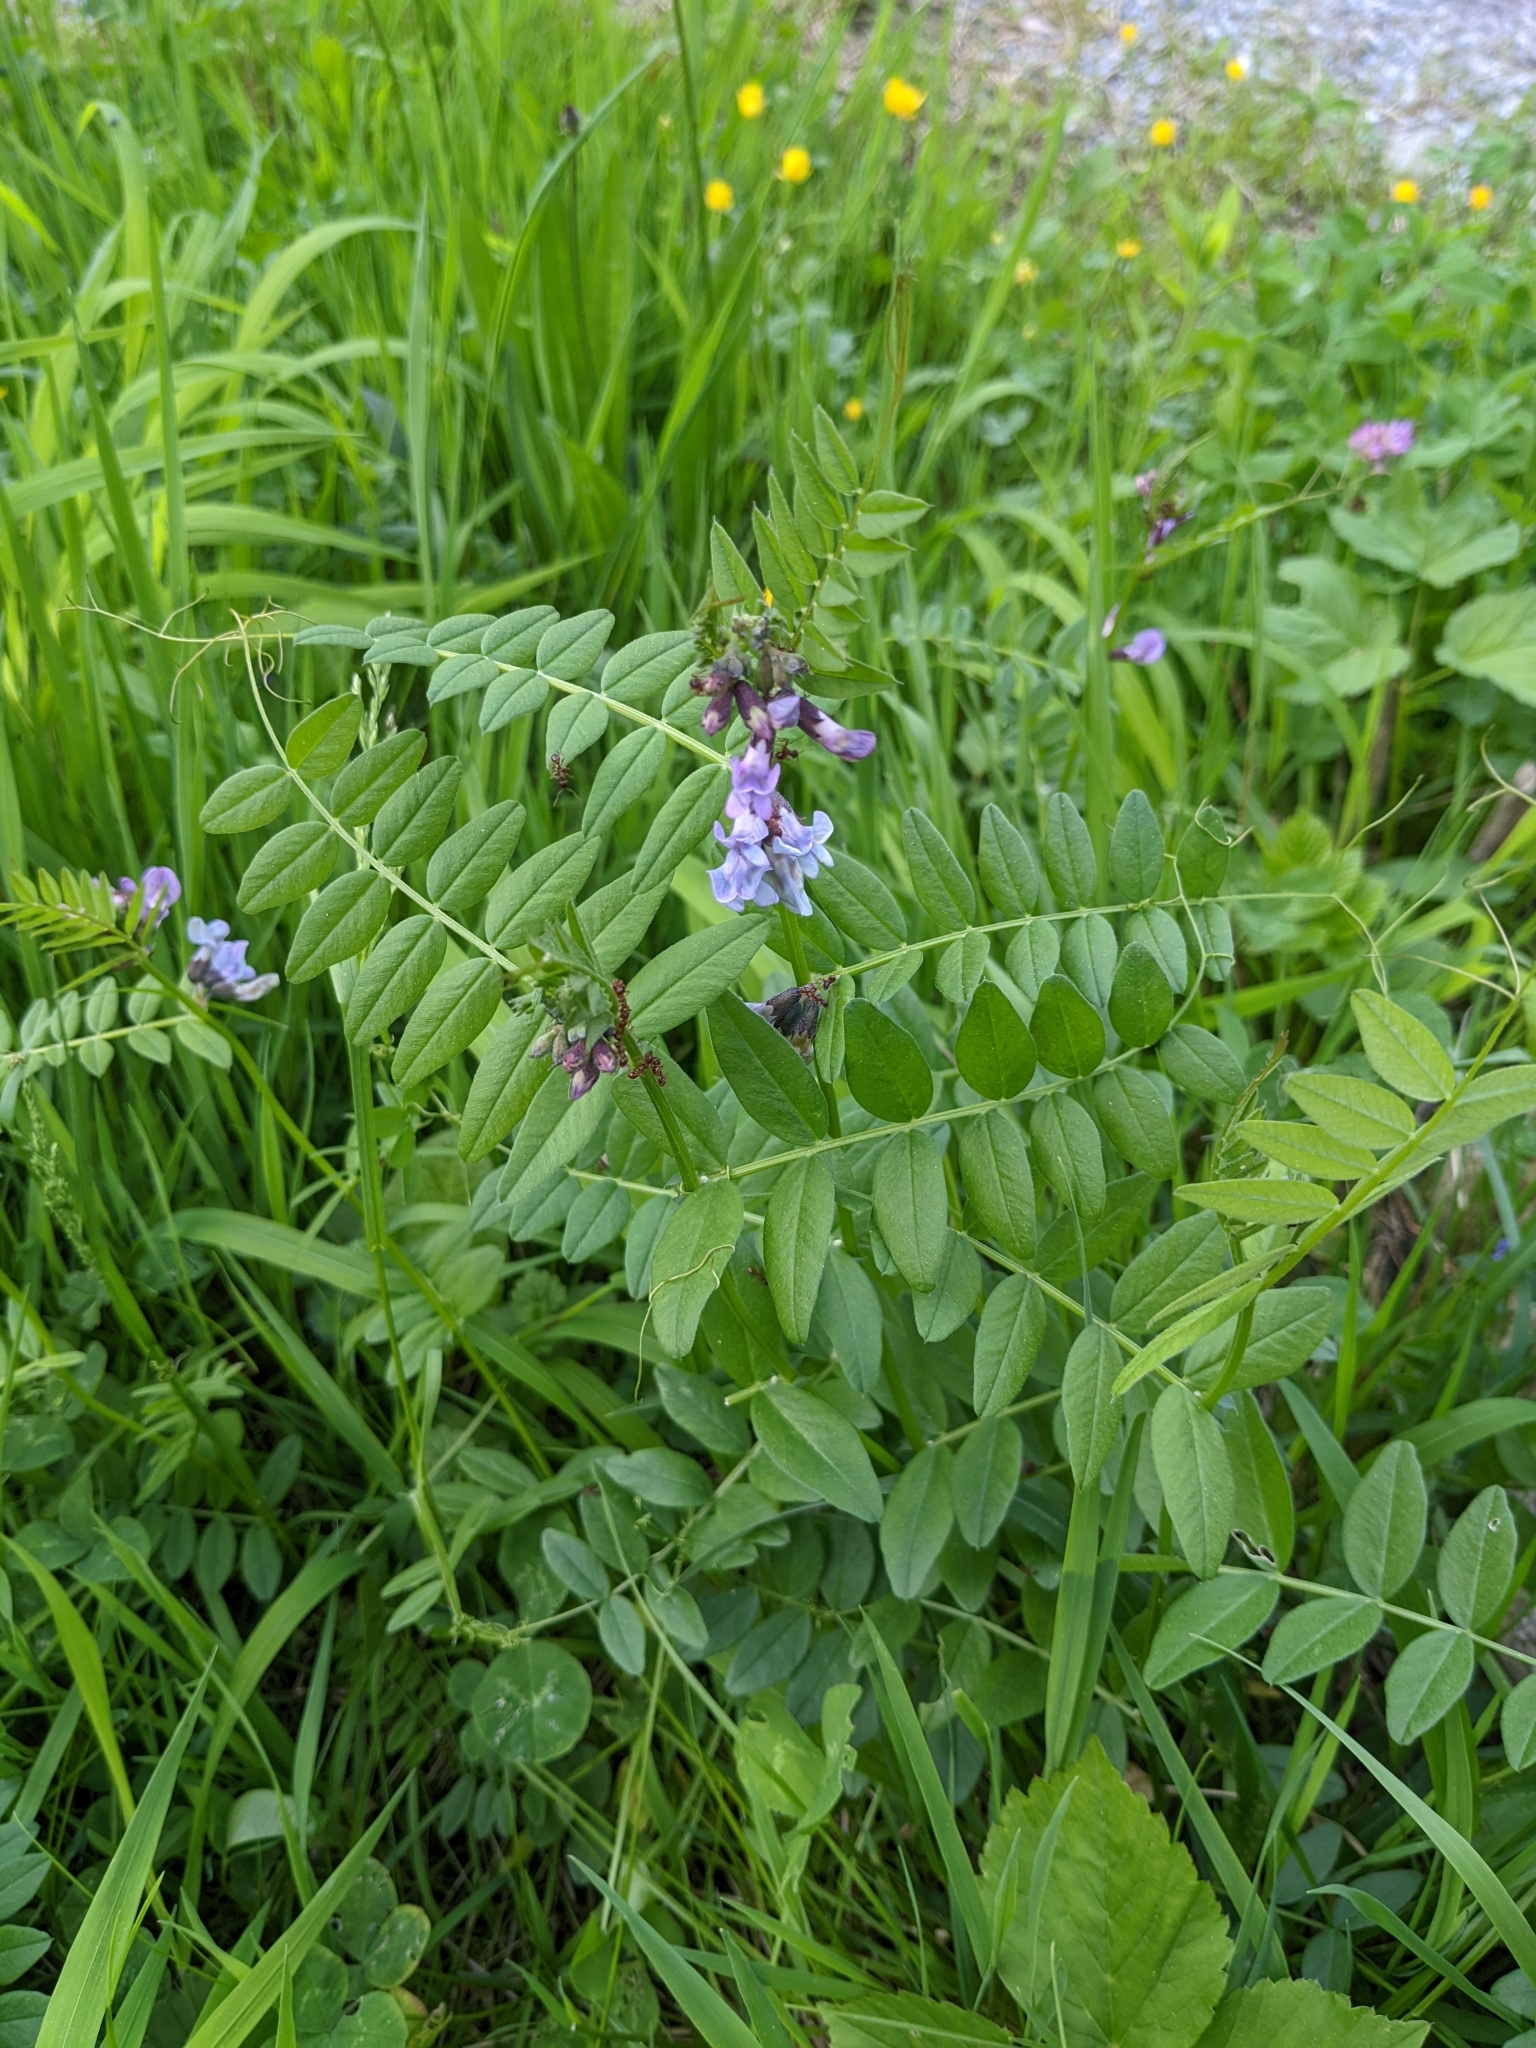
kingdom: Plantae
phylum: Tracheophyta
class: Magnoliopsida
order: Fabales
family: Fabaceae
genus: Vicia
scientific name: Vicia sepium
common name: Bush vetch
